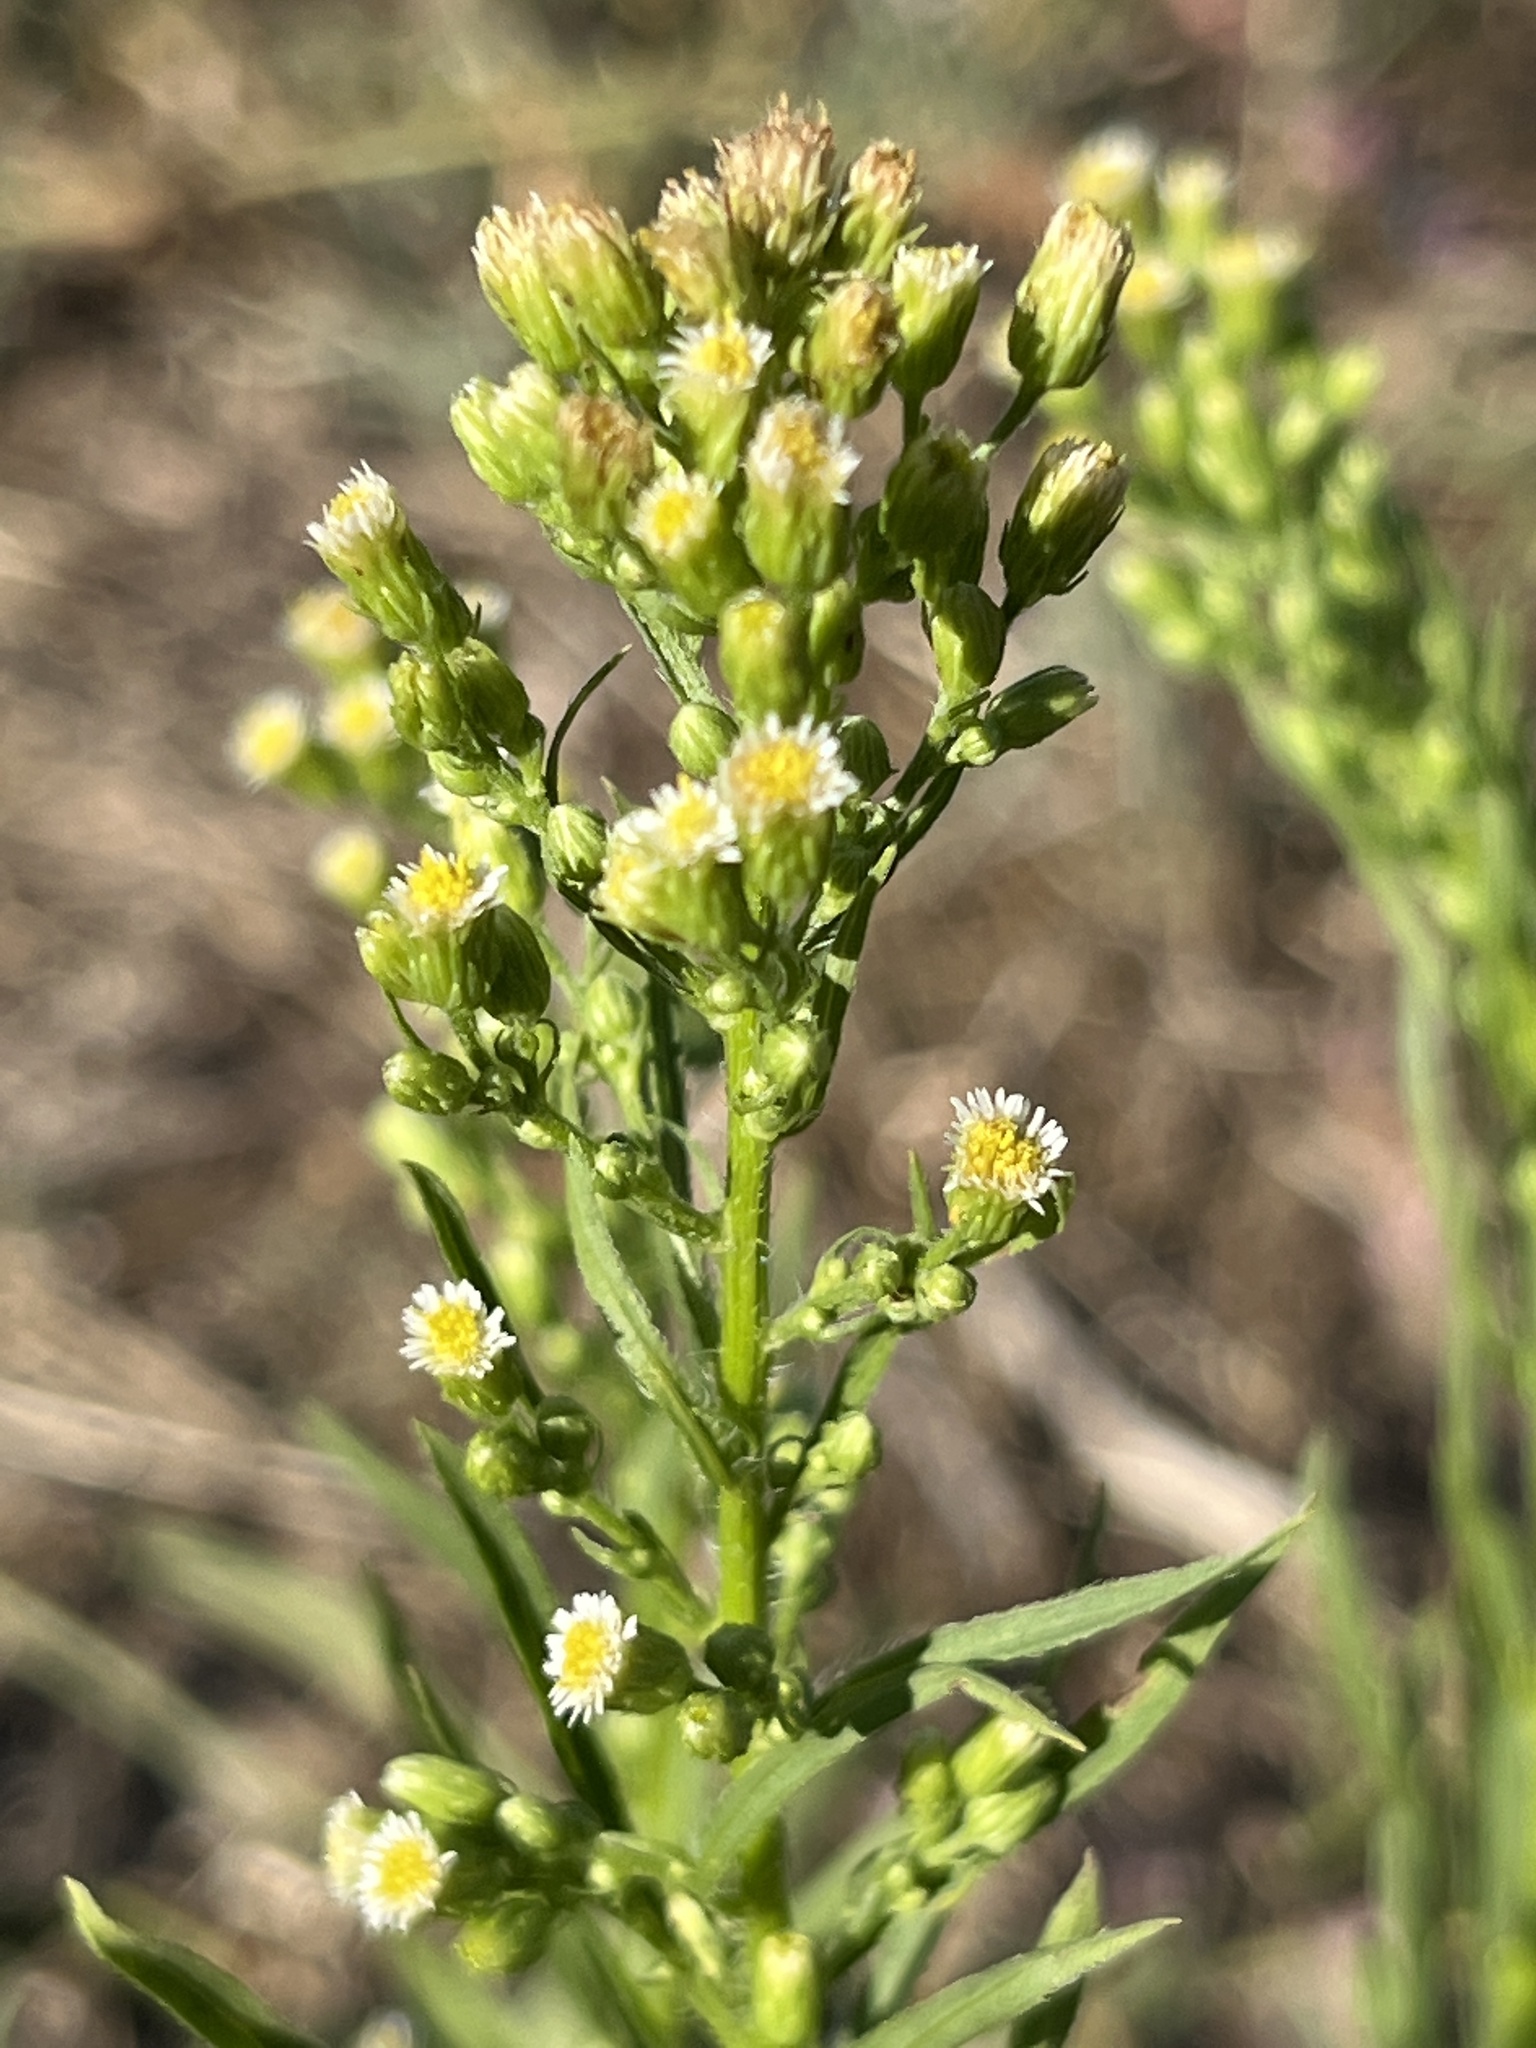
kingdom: Plantae
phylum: Tracheophyta
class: Magnoliopsida
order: Asterales
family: Asteraceae
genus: Erigeron
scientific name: Erigeron canadensis
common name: Canadian fleabane
